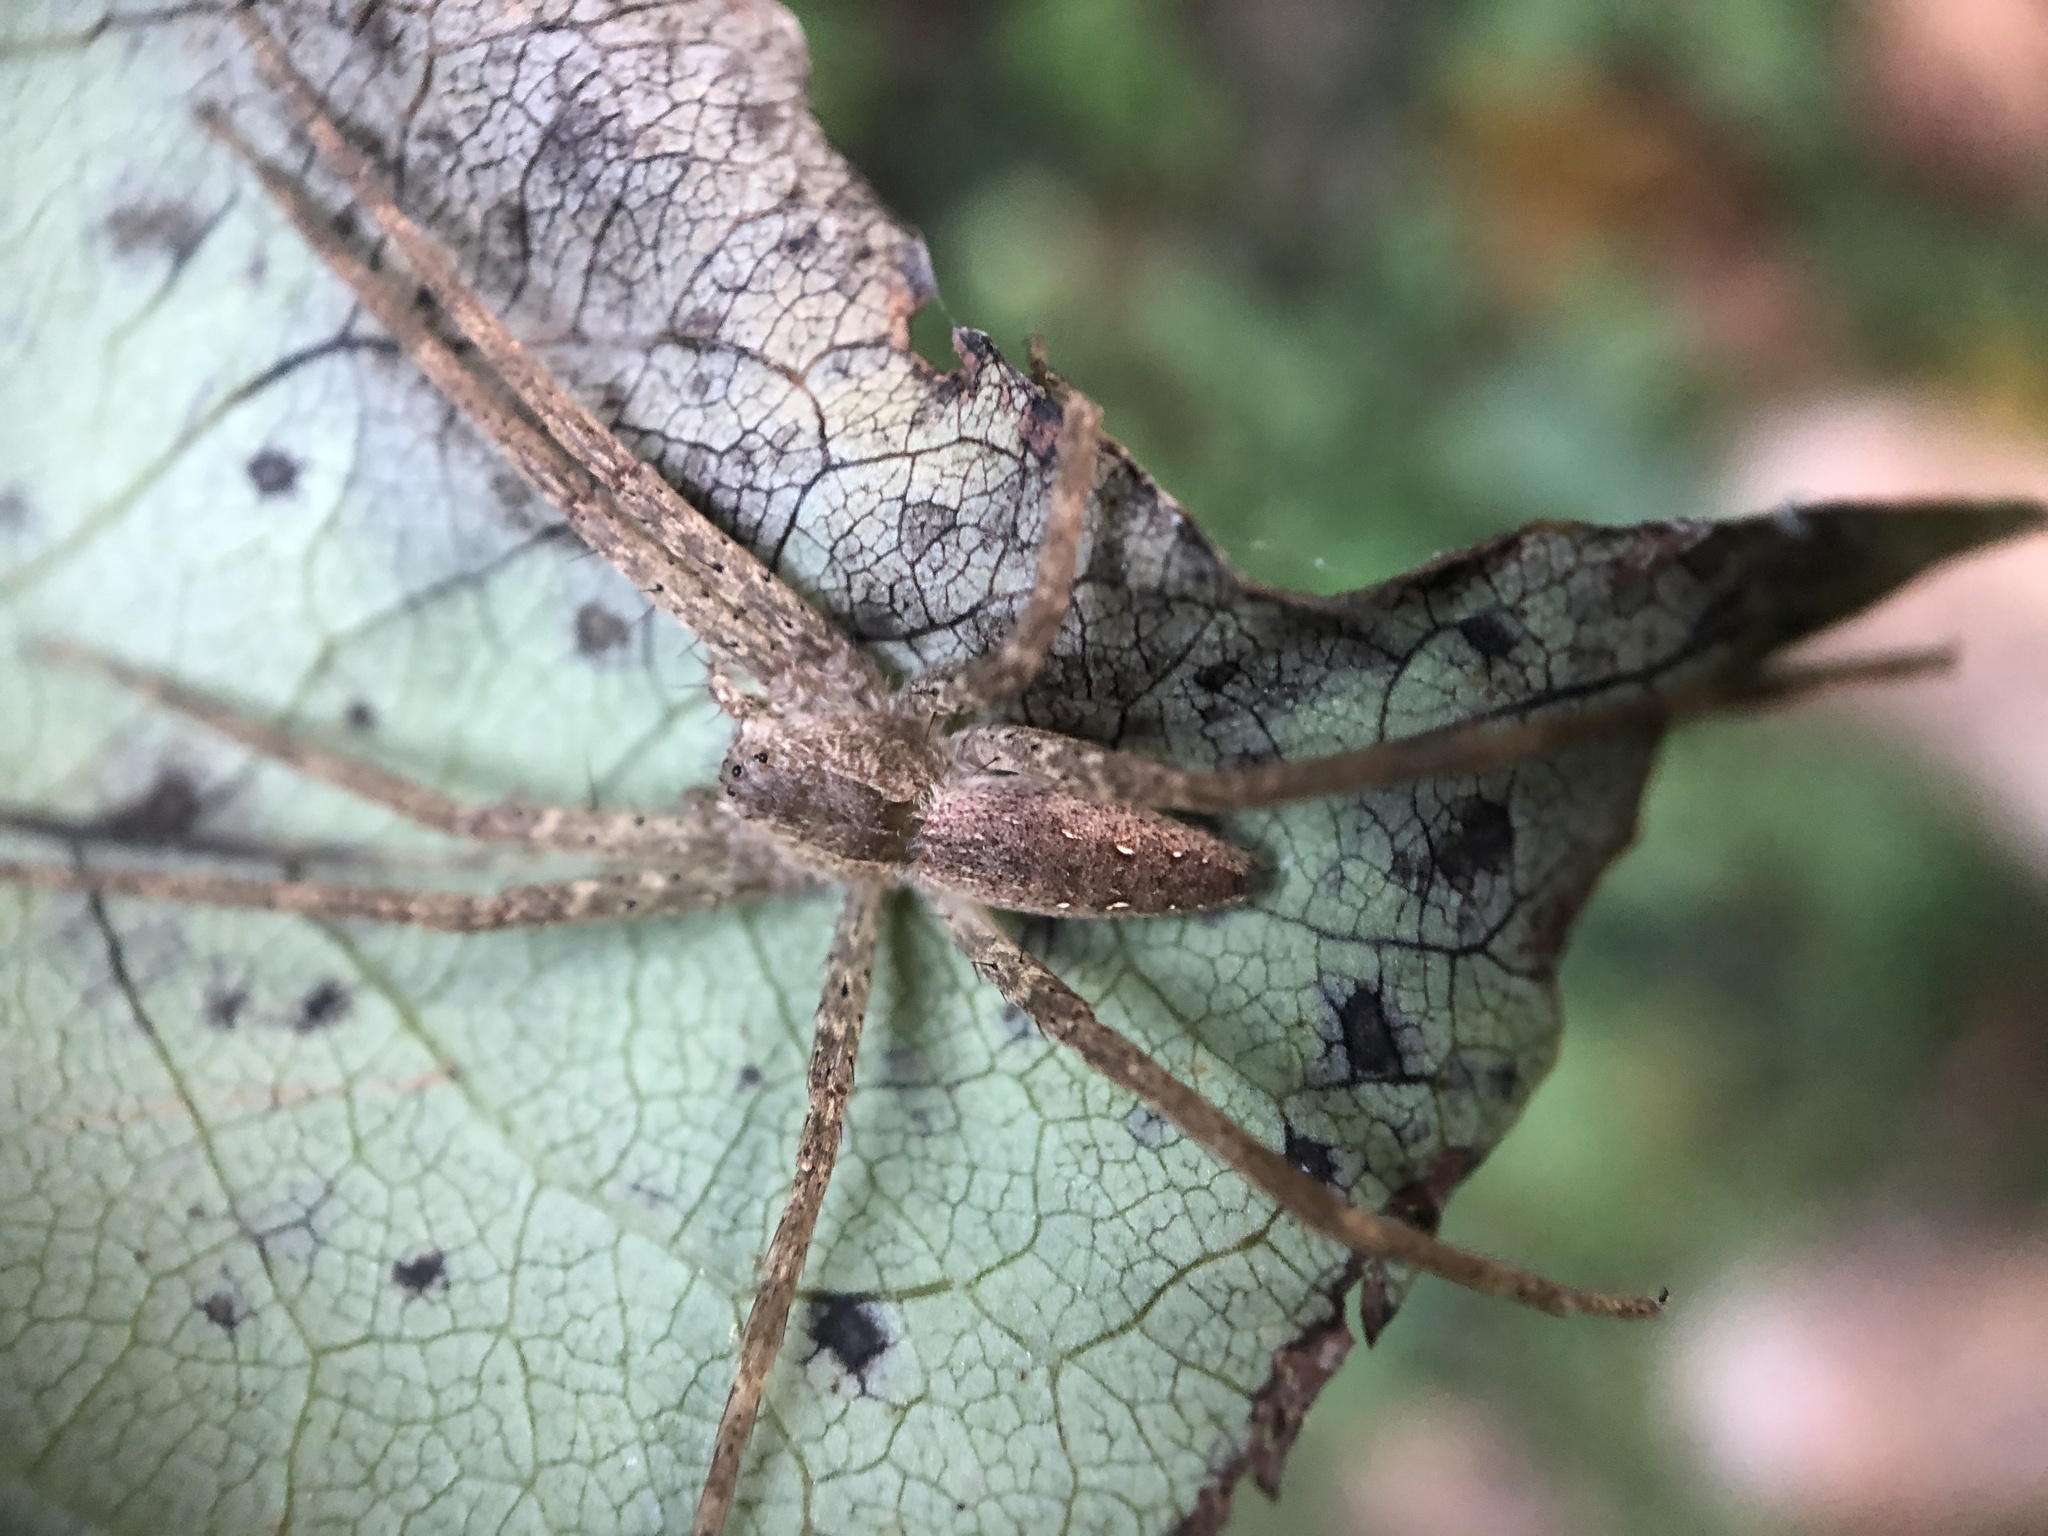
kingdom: Animalia
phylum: Arthropoda
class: Arachnida
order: Araneae
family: Pisauridae
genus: Pisaurina
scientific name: Pisaurina mira
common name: American nursery web spider
